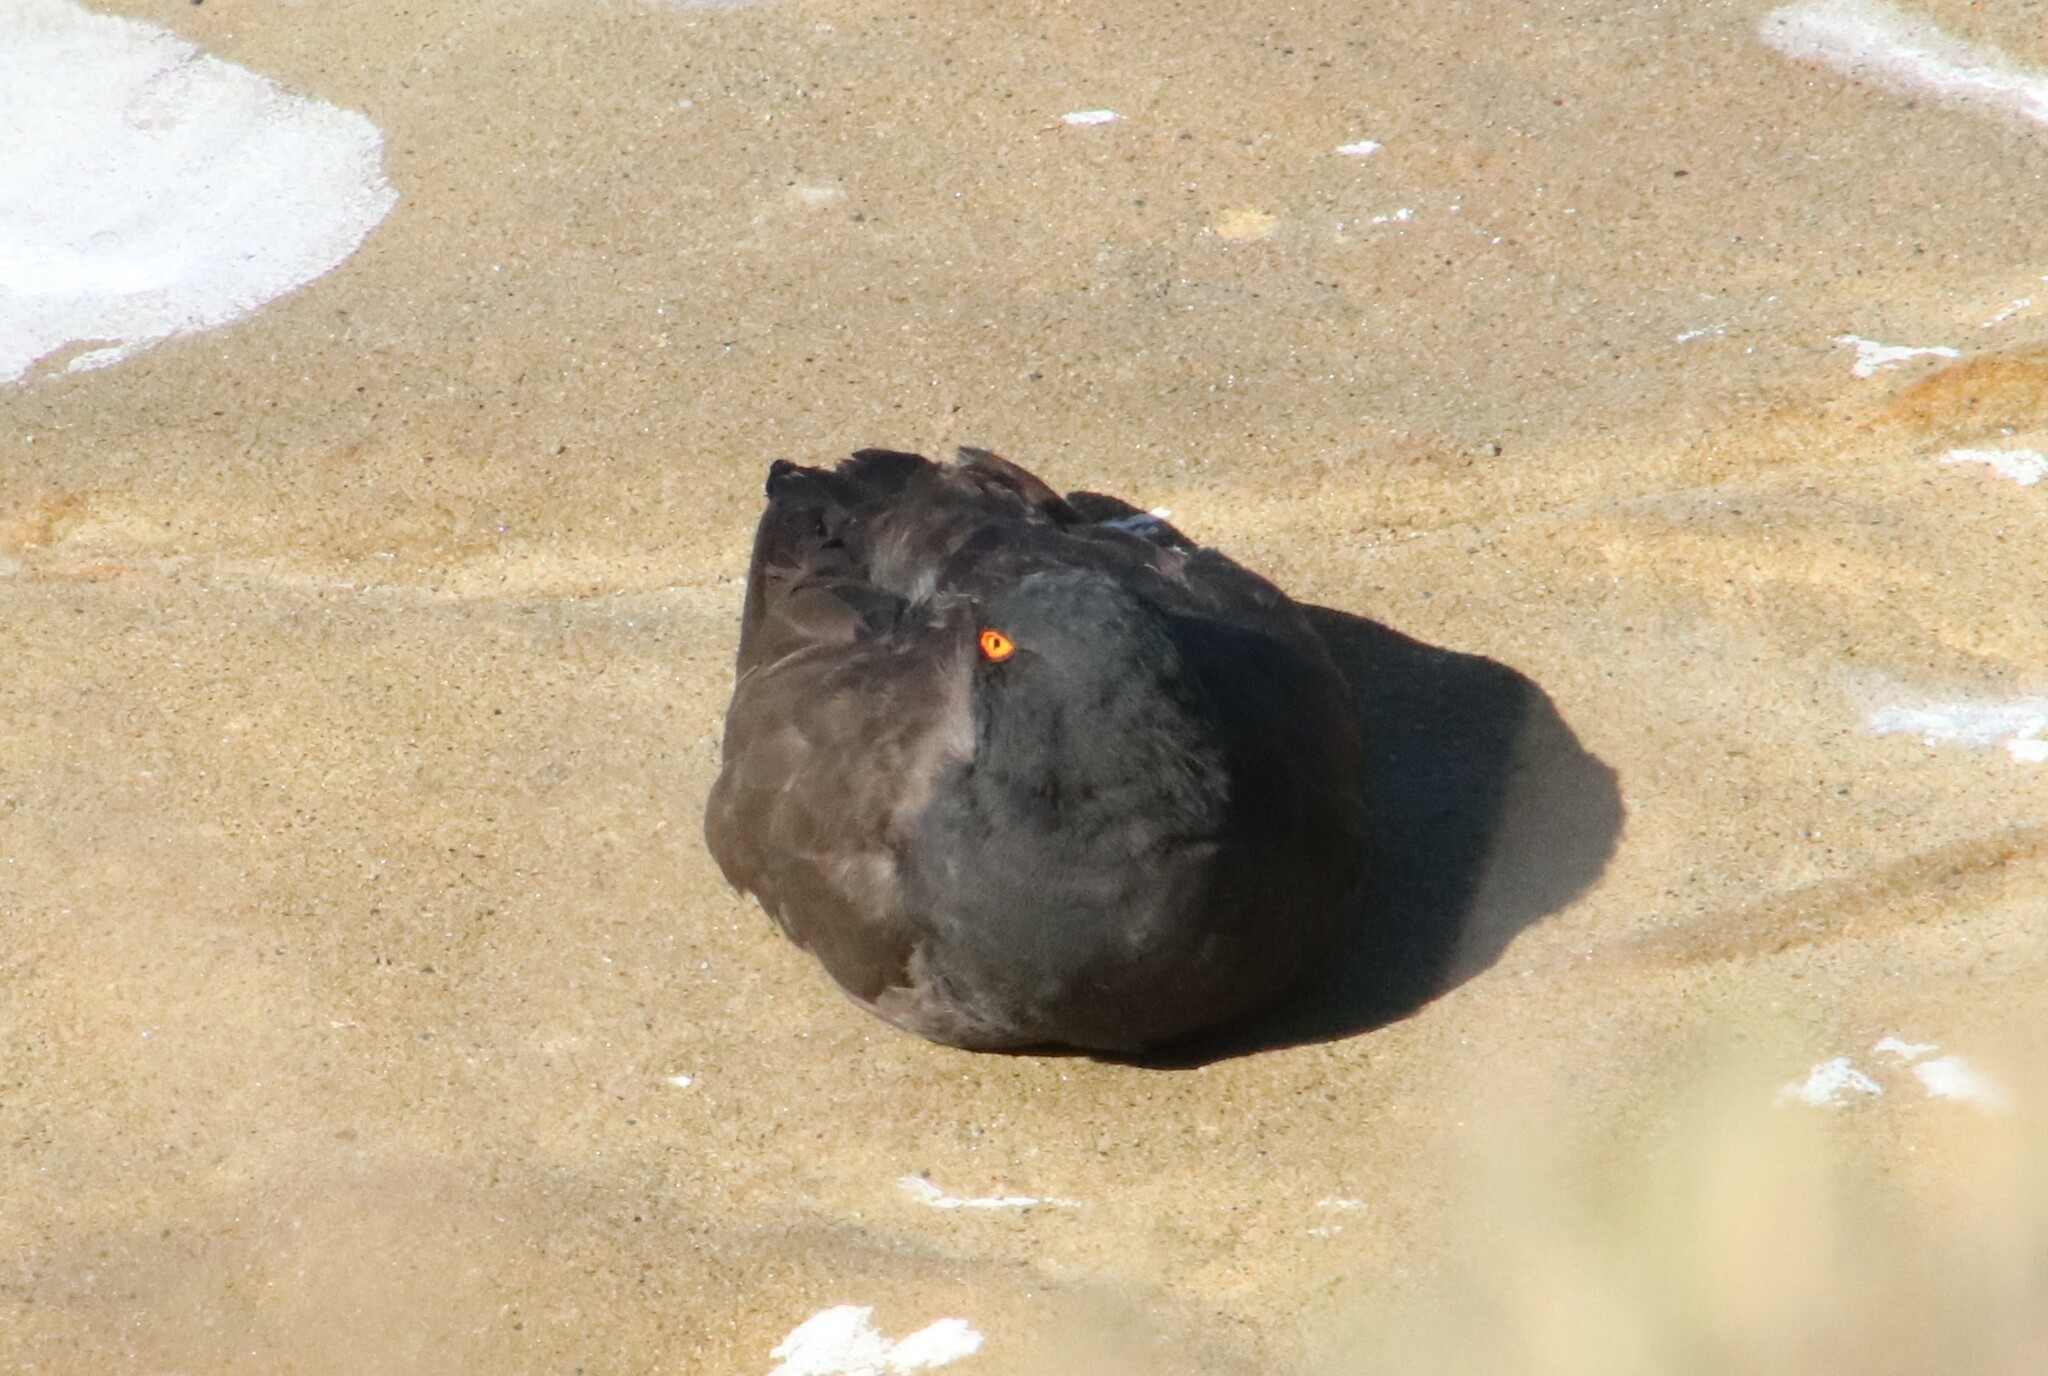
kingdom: Animalia
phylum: Chordata
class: Aves
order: Charadriiformes
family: Haematopodidae
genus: Haematopus
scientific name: Haematopus bachmani
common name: Black oystercatcher
